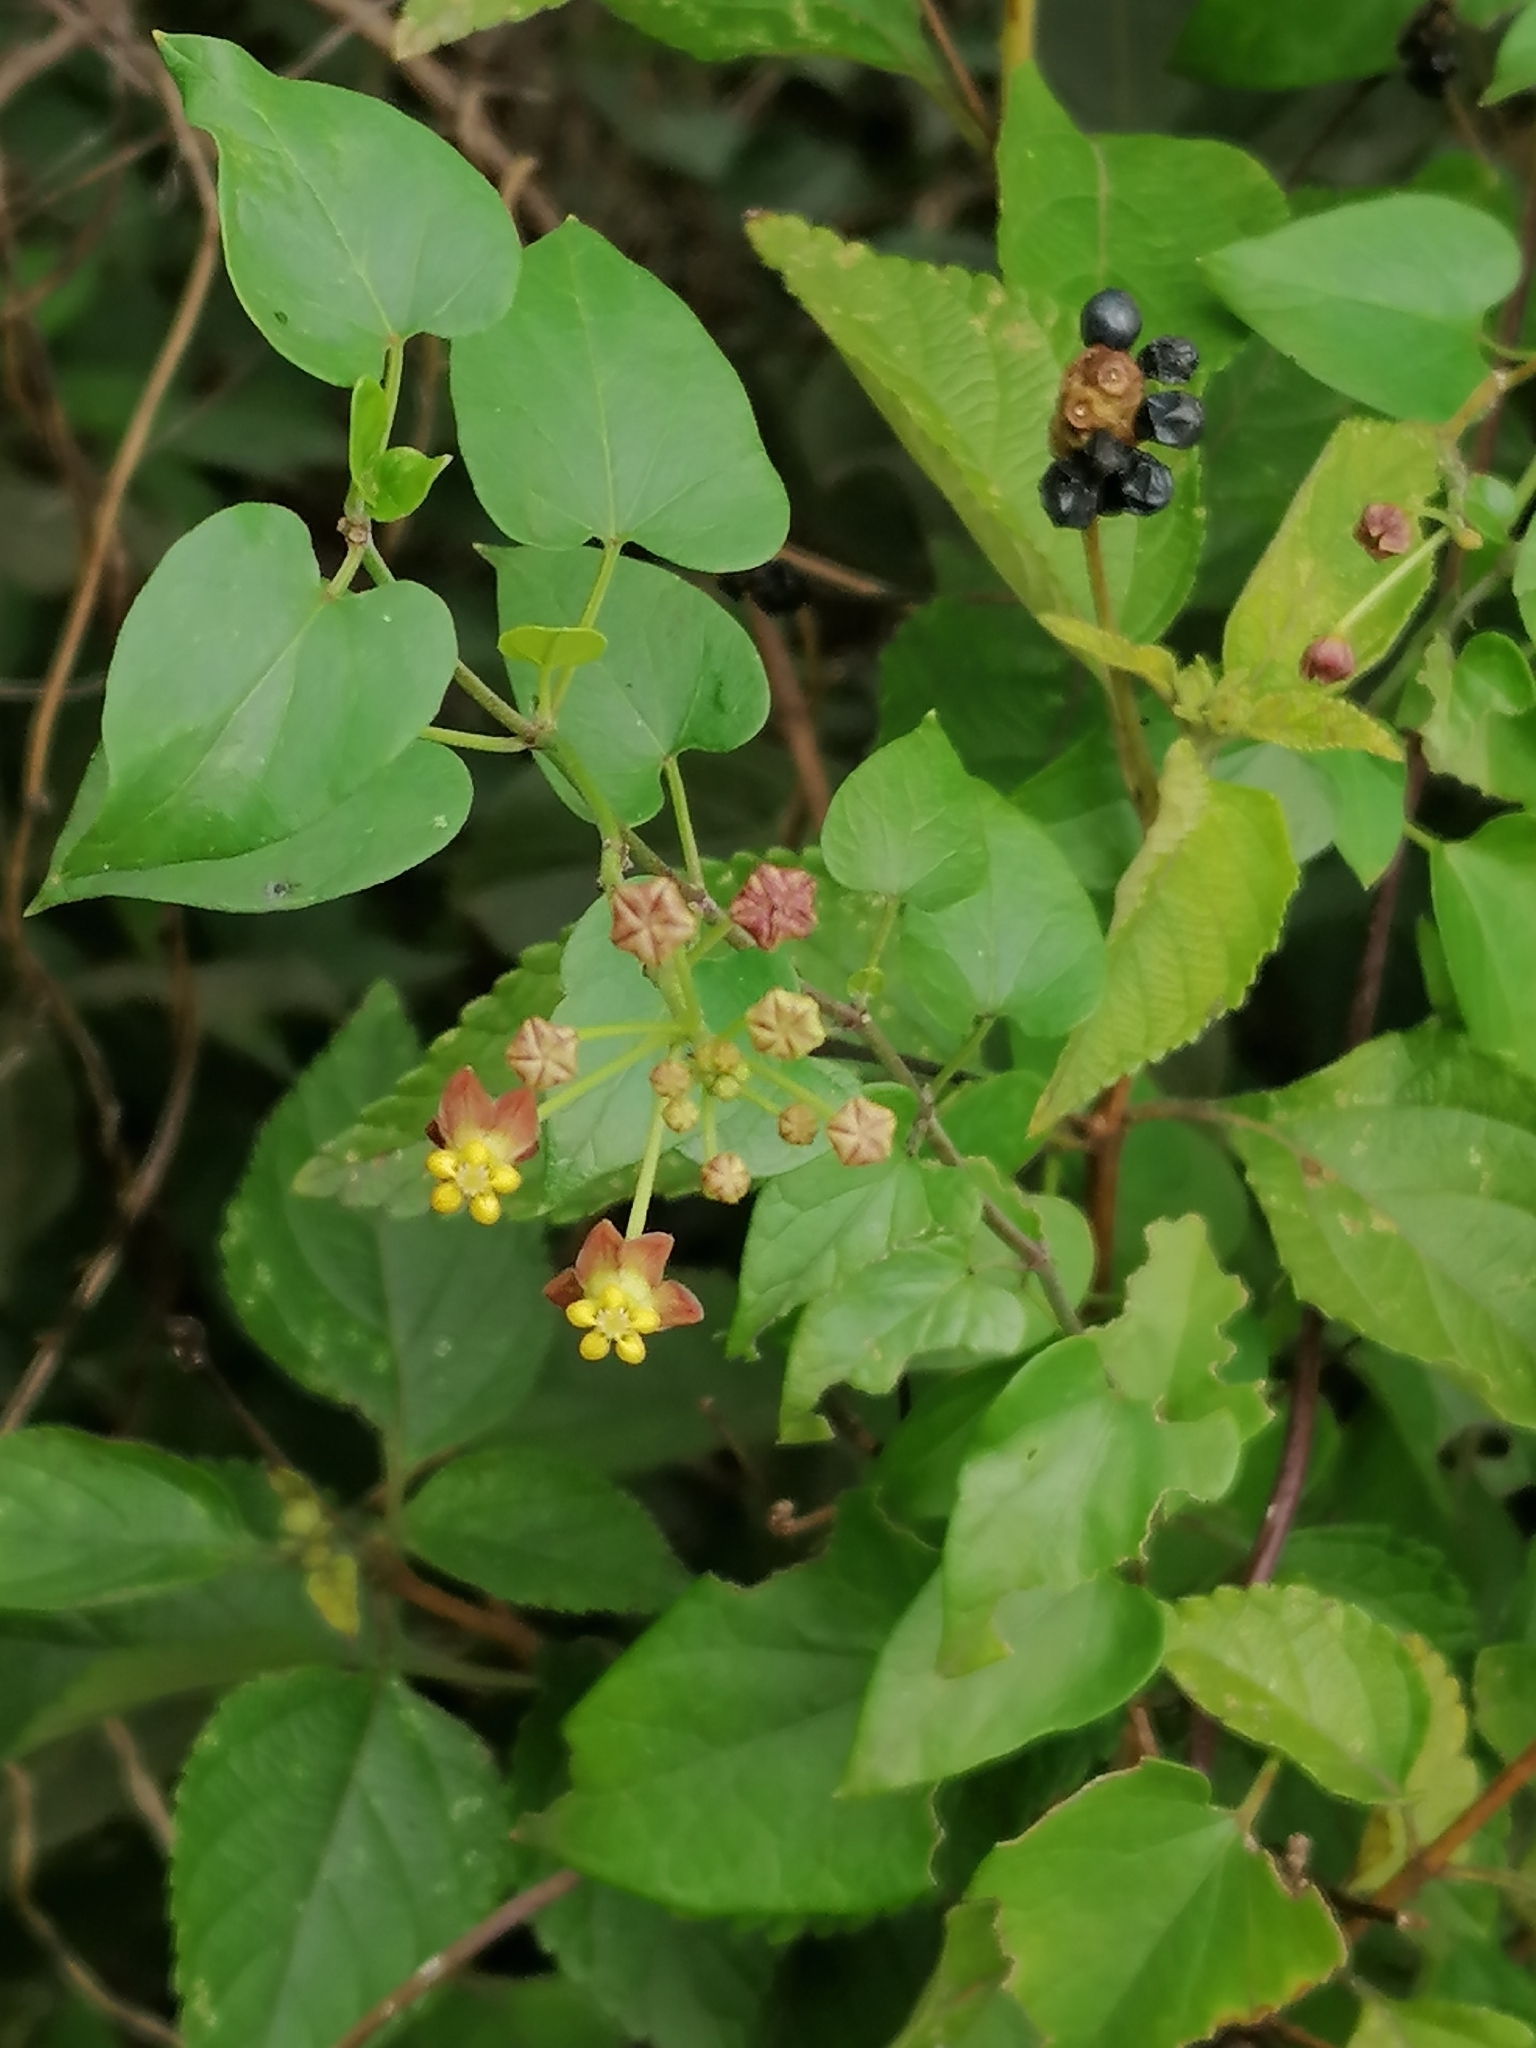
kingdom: Plantae
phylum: Tracheophyta
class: Magnoliopsida
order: Gentianales
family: Apocynaceae
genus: Cynanchum
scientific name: Cynanchum
